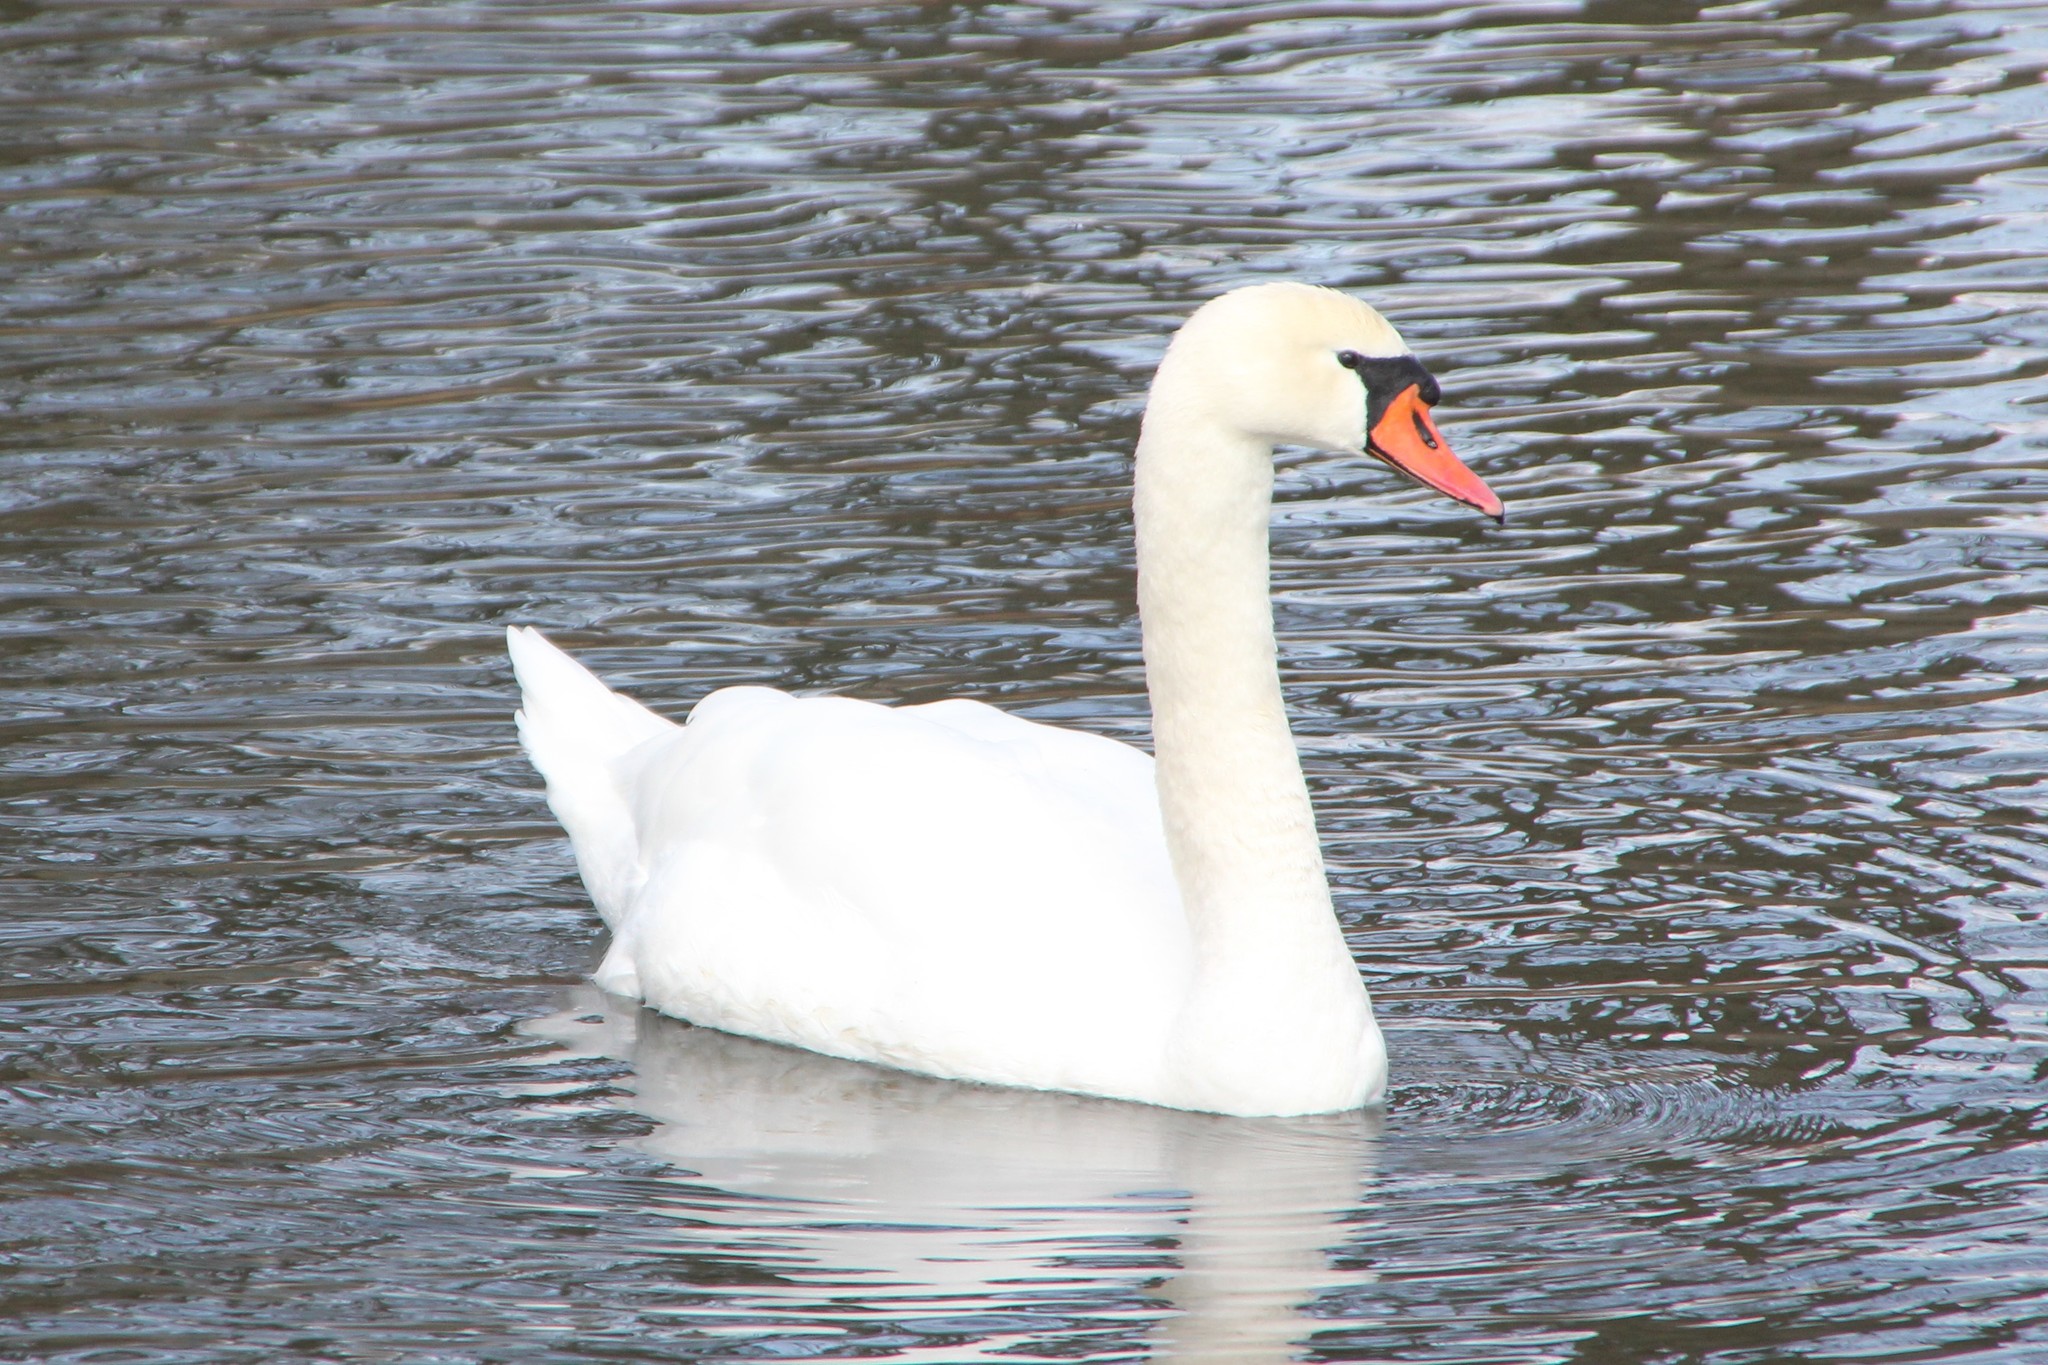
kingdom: Animalia
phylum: Chordata
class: Aves
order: Anseriformes
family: Anatidae
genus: Cygnus
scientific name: Cygnus olor
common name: Mute swan
